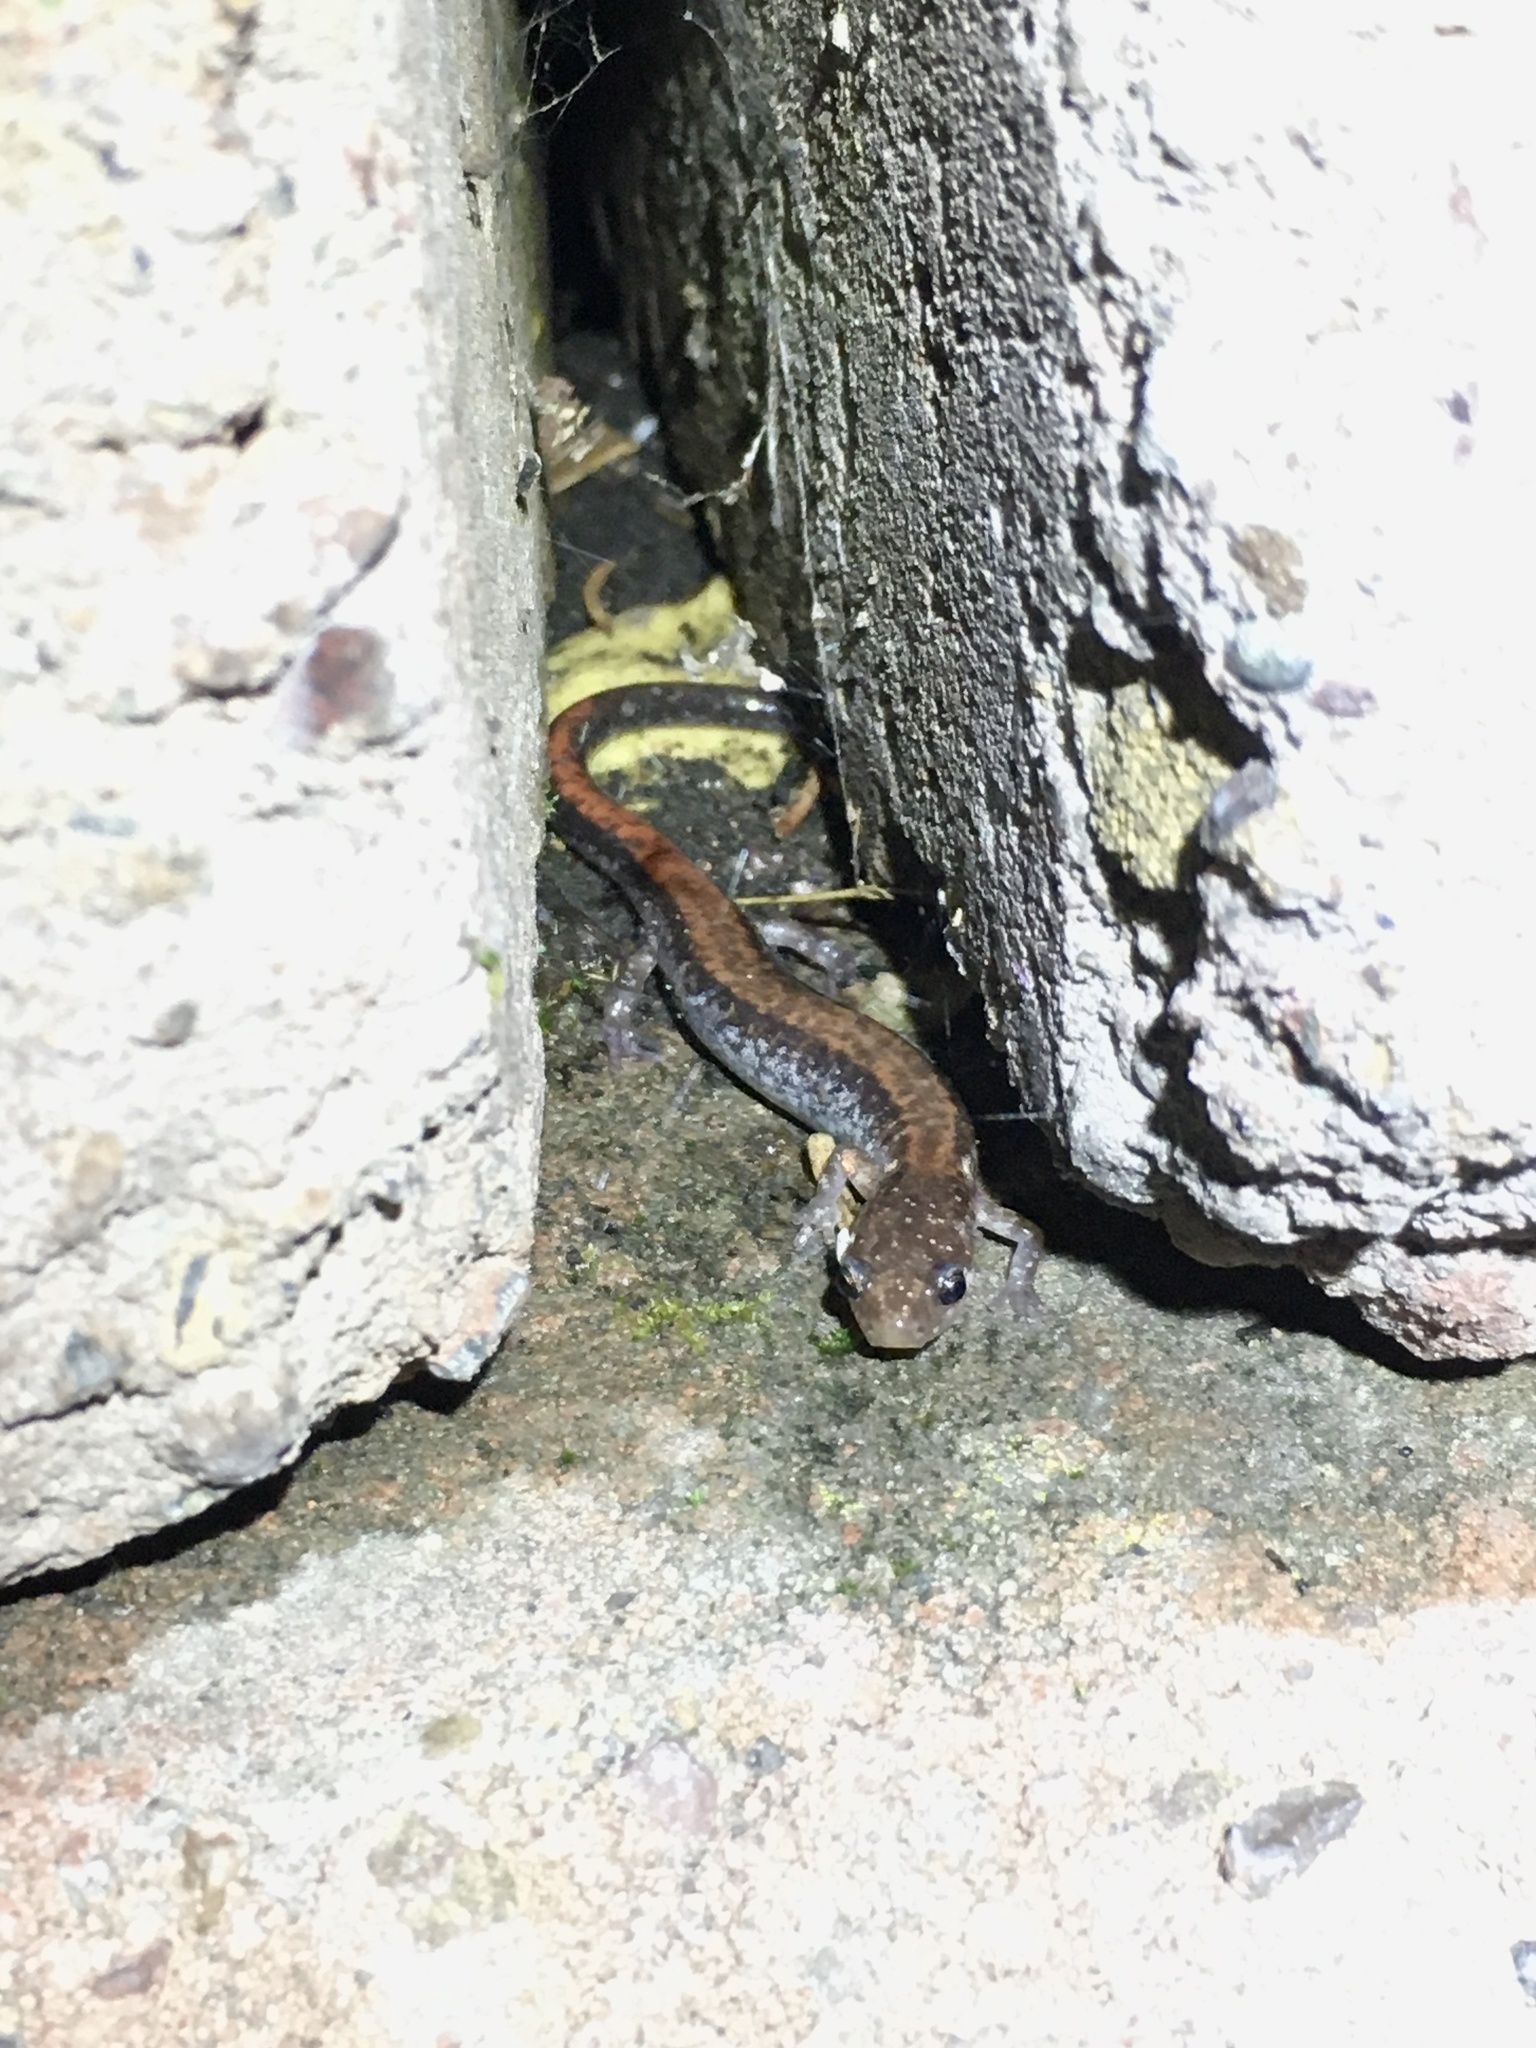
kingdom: Animalia
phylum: Chordata
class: Amphibia
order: Caudata
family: Plethodontidae
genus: Plethodon
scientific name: Plethodon cinereus
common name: Redback salamander
